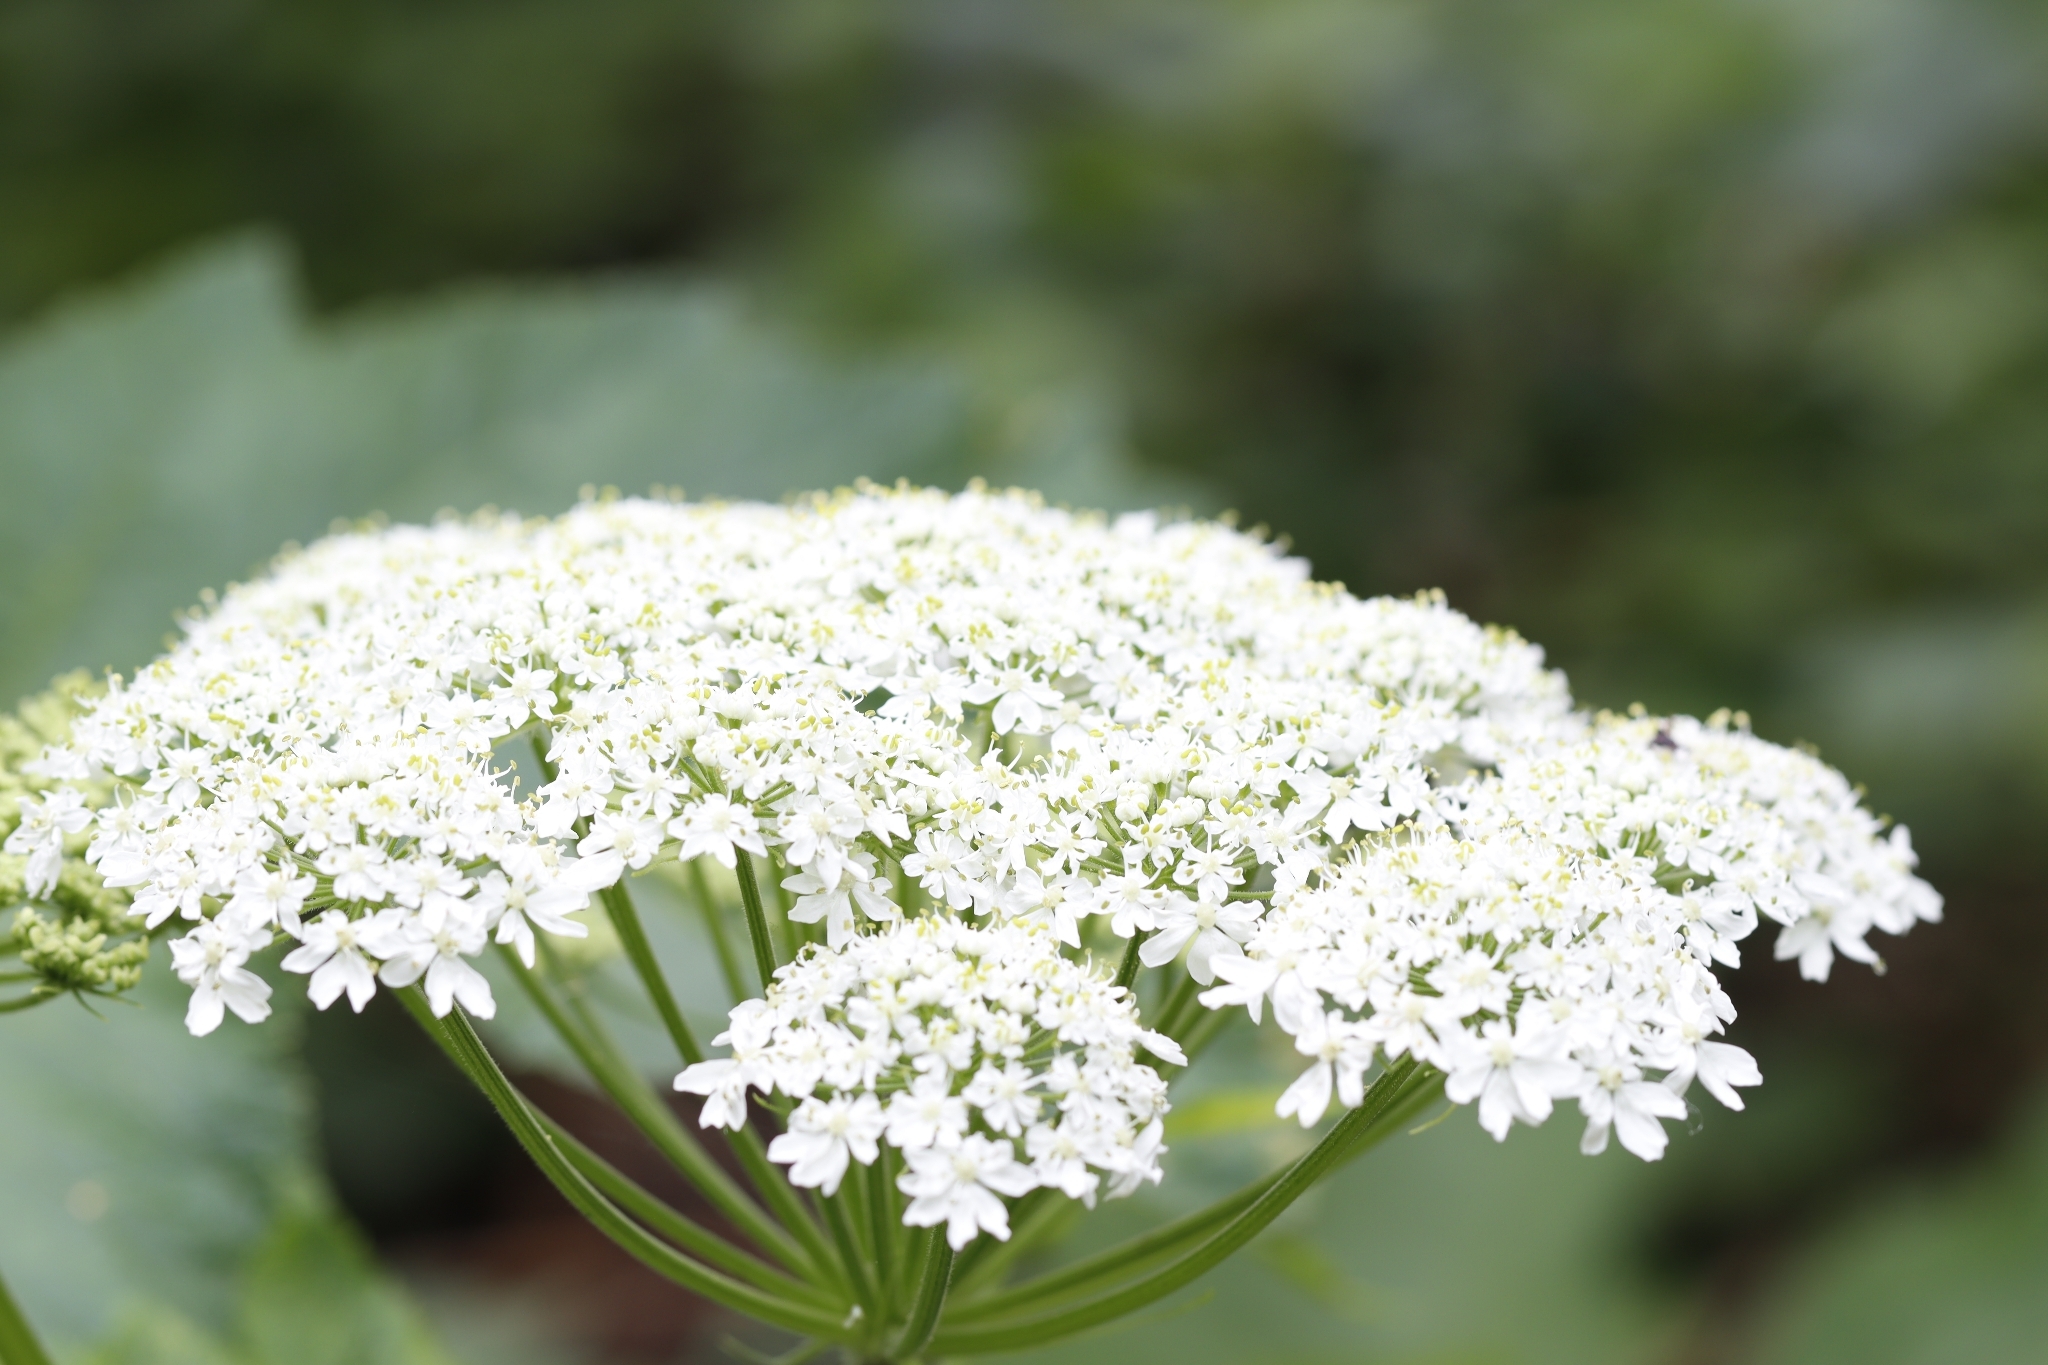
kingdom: Plantae
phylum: Tracheophyta
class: Magnoliopsida
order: Apiales
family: Apiaceae
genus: Heracleum
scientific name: Heracleum maximum
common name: American cow parsnip
